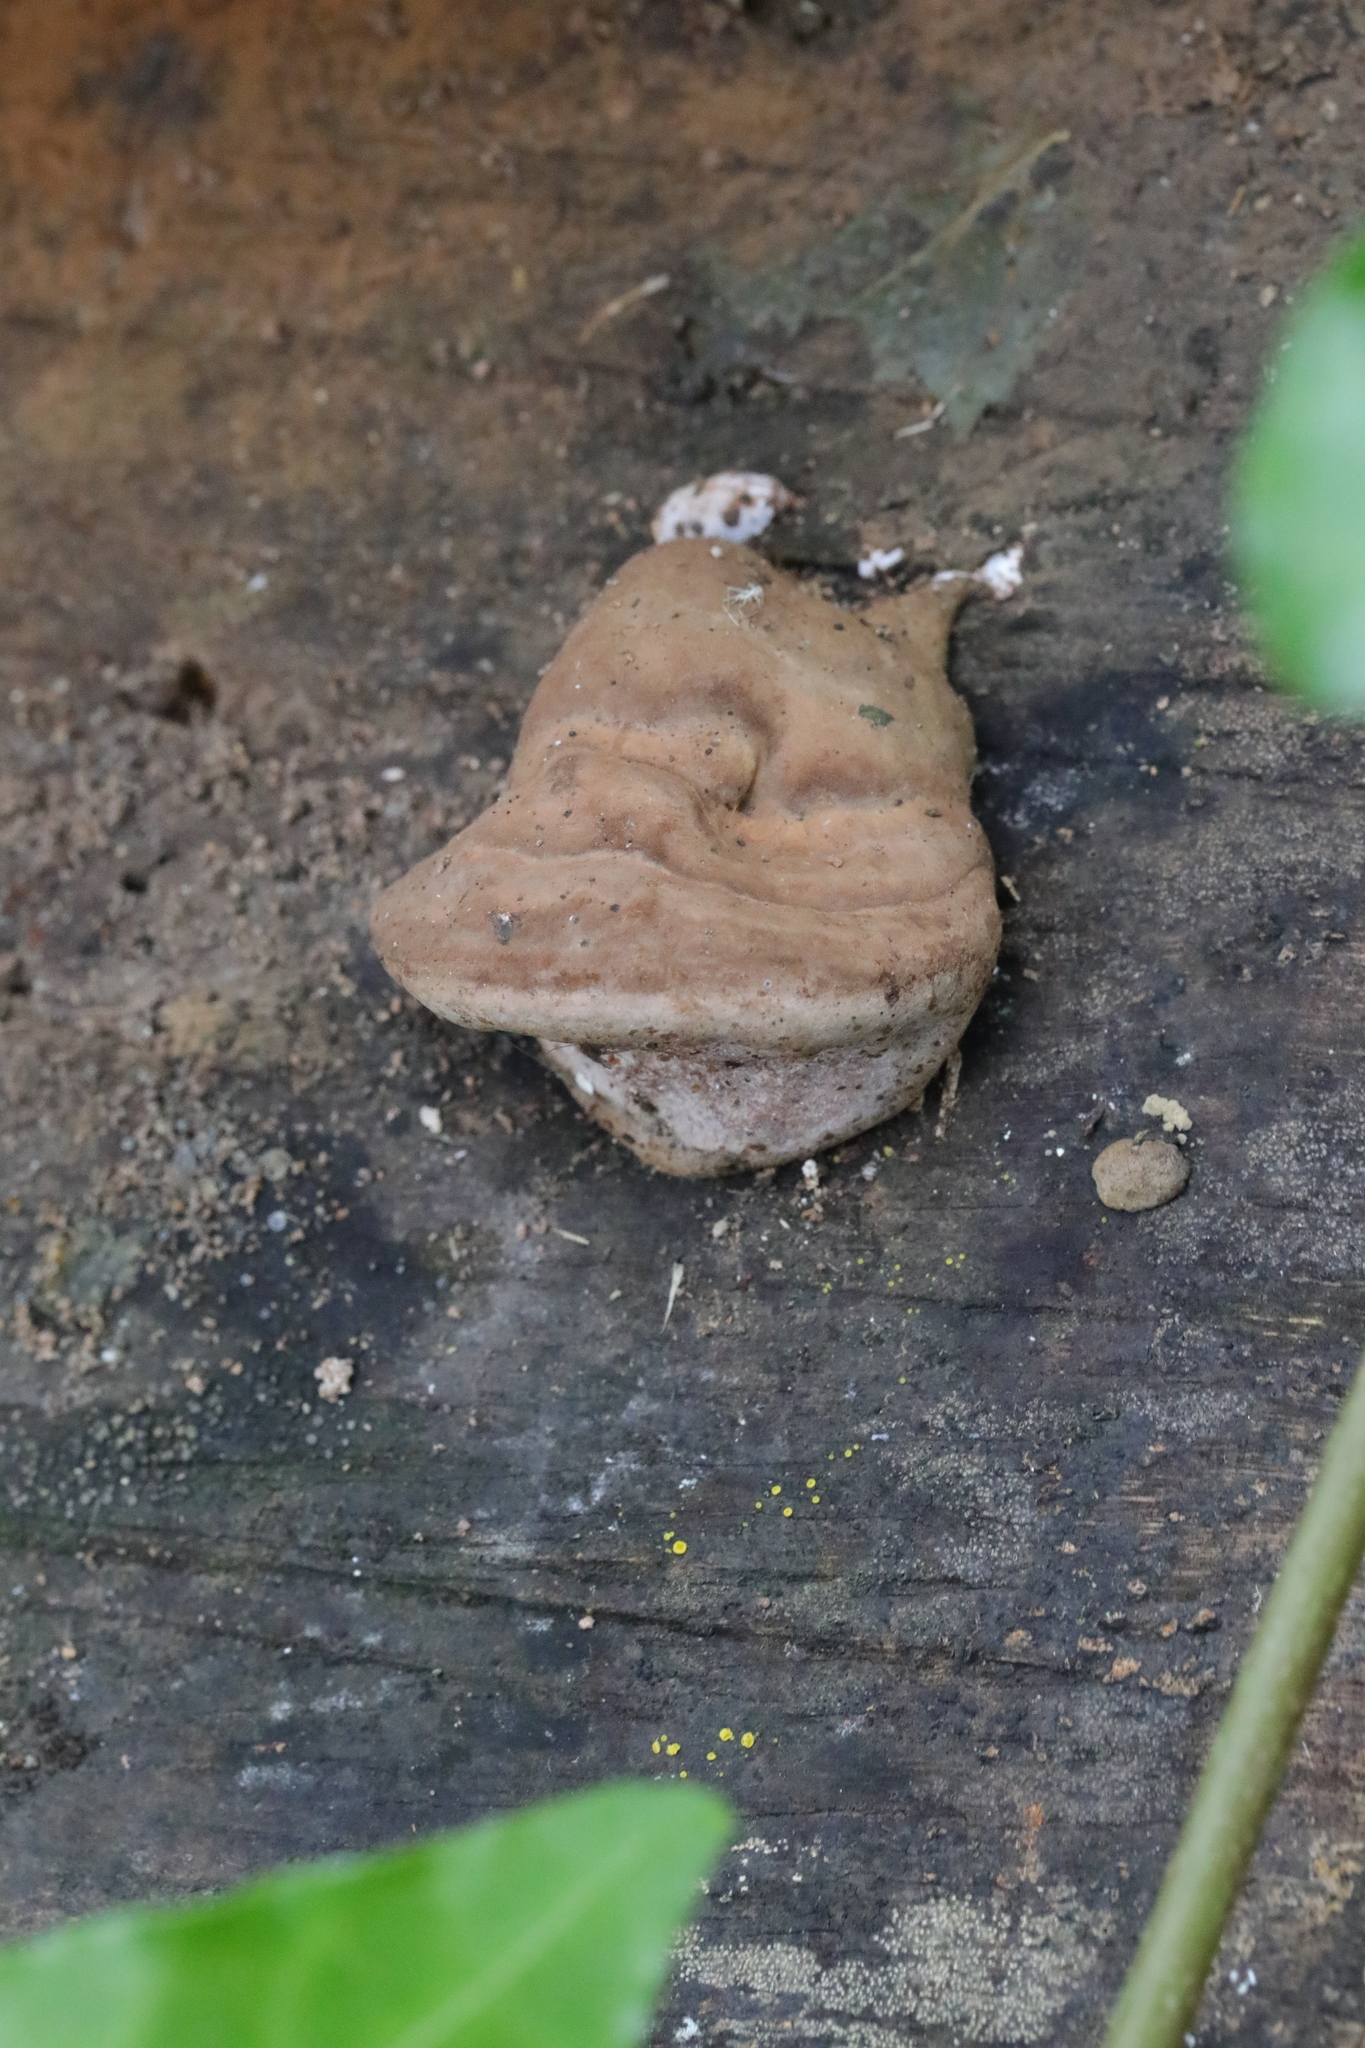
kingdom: Fungi
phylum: Basidiomycota
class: Agaricomycetes
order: Polyporales
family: Polyporaceae
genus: Ganoderma
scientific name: Ganoderma applanatum
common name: Artist's bracket
